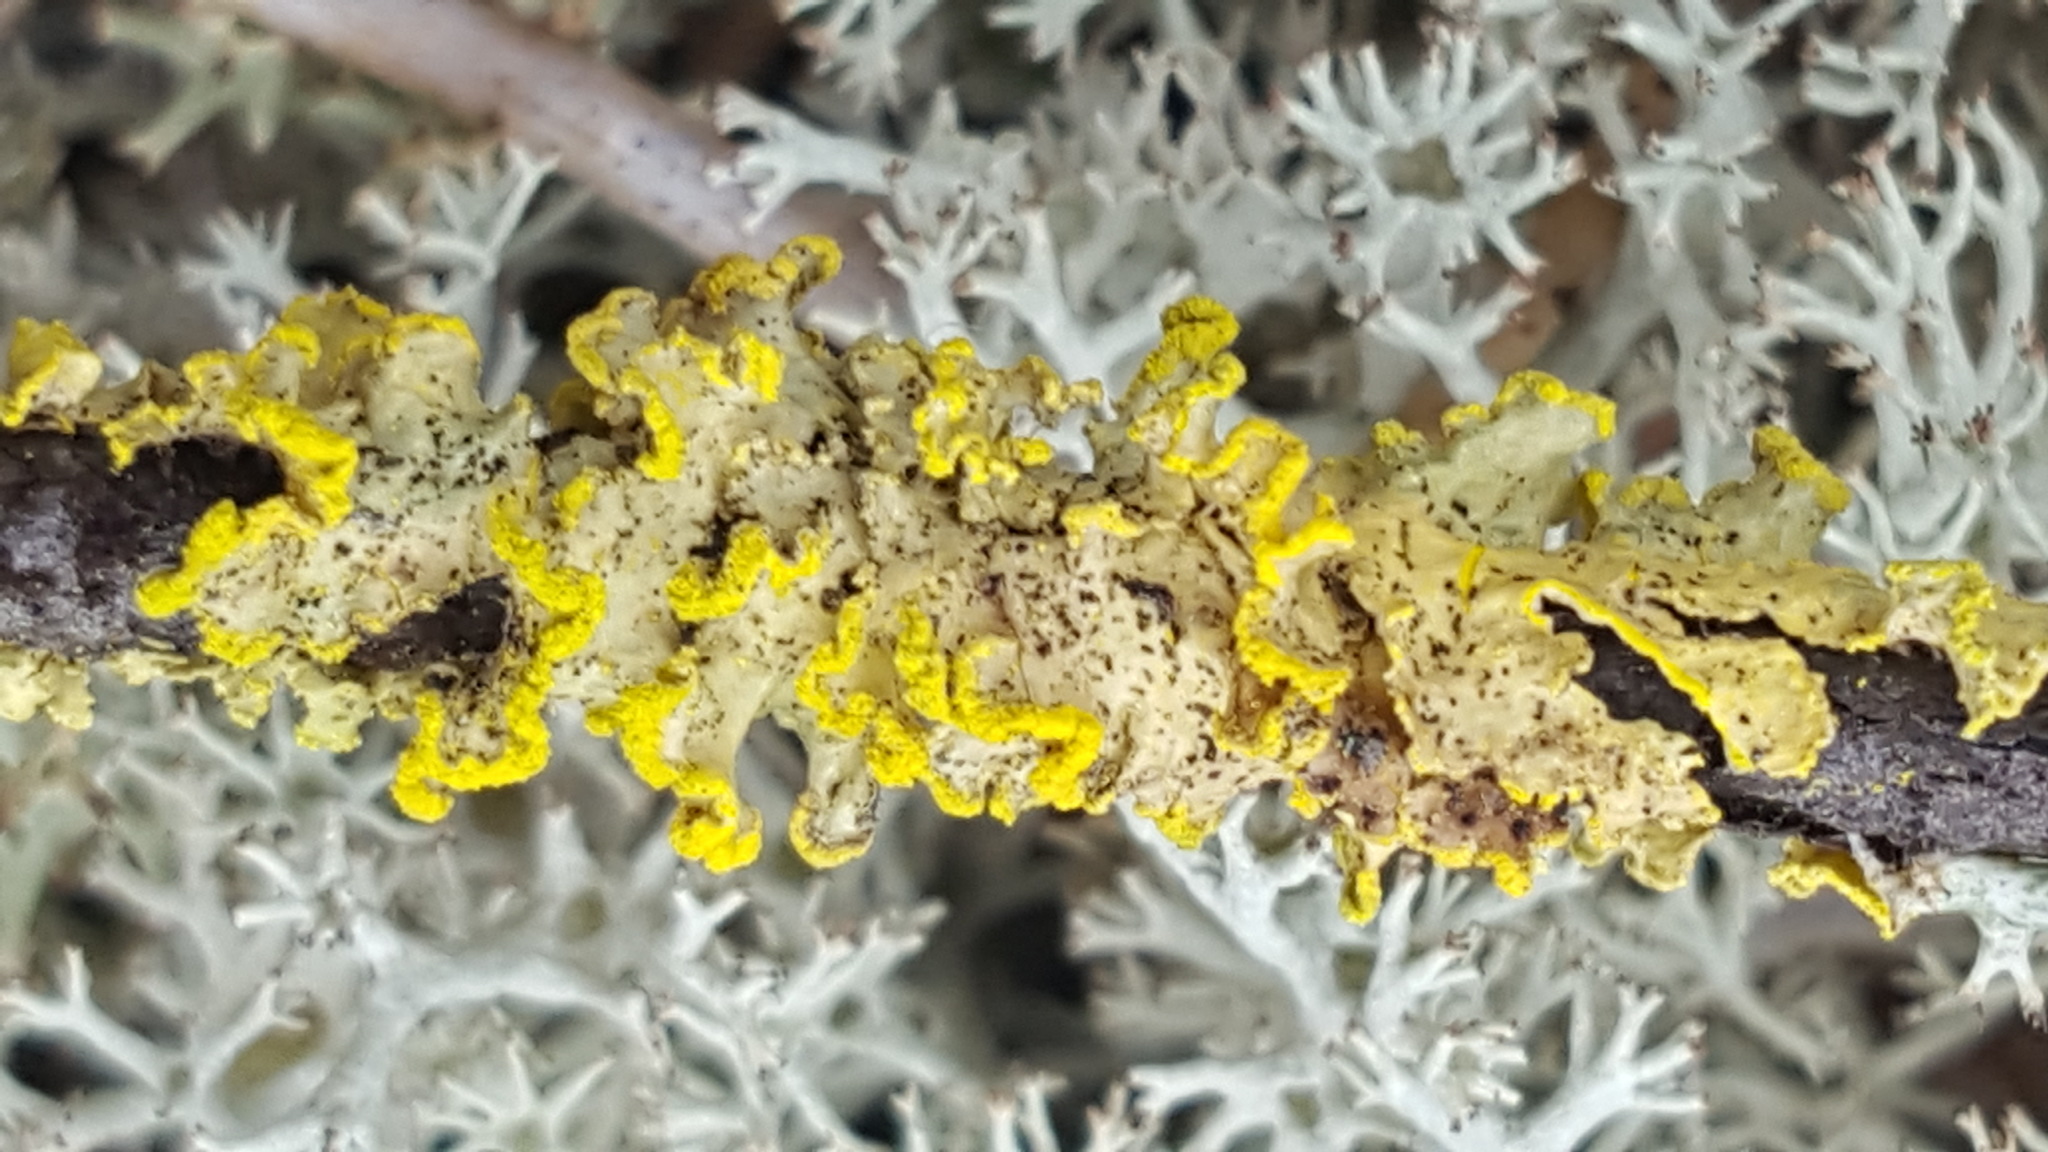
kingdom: Fungi
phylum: Ascomycota
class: Lecanoromycetes
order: Lecanorales
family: Parmeliaceae
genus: Vulpicida
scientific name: Vulpicida pinastri
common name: Powdered sunshine lichen
